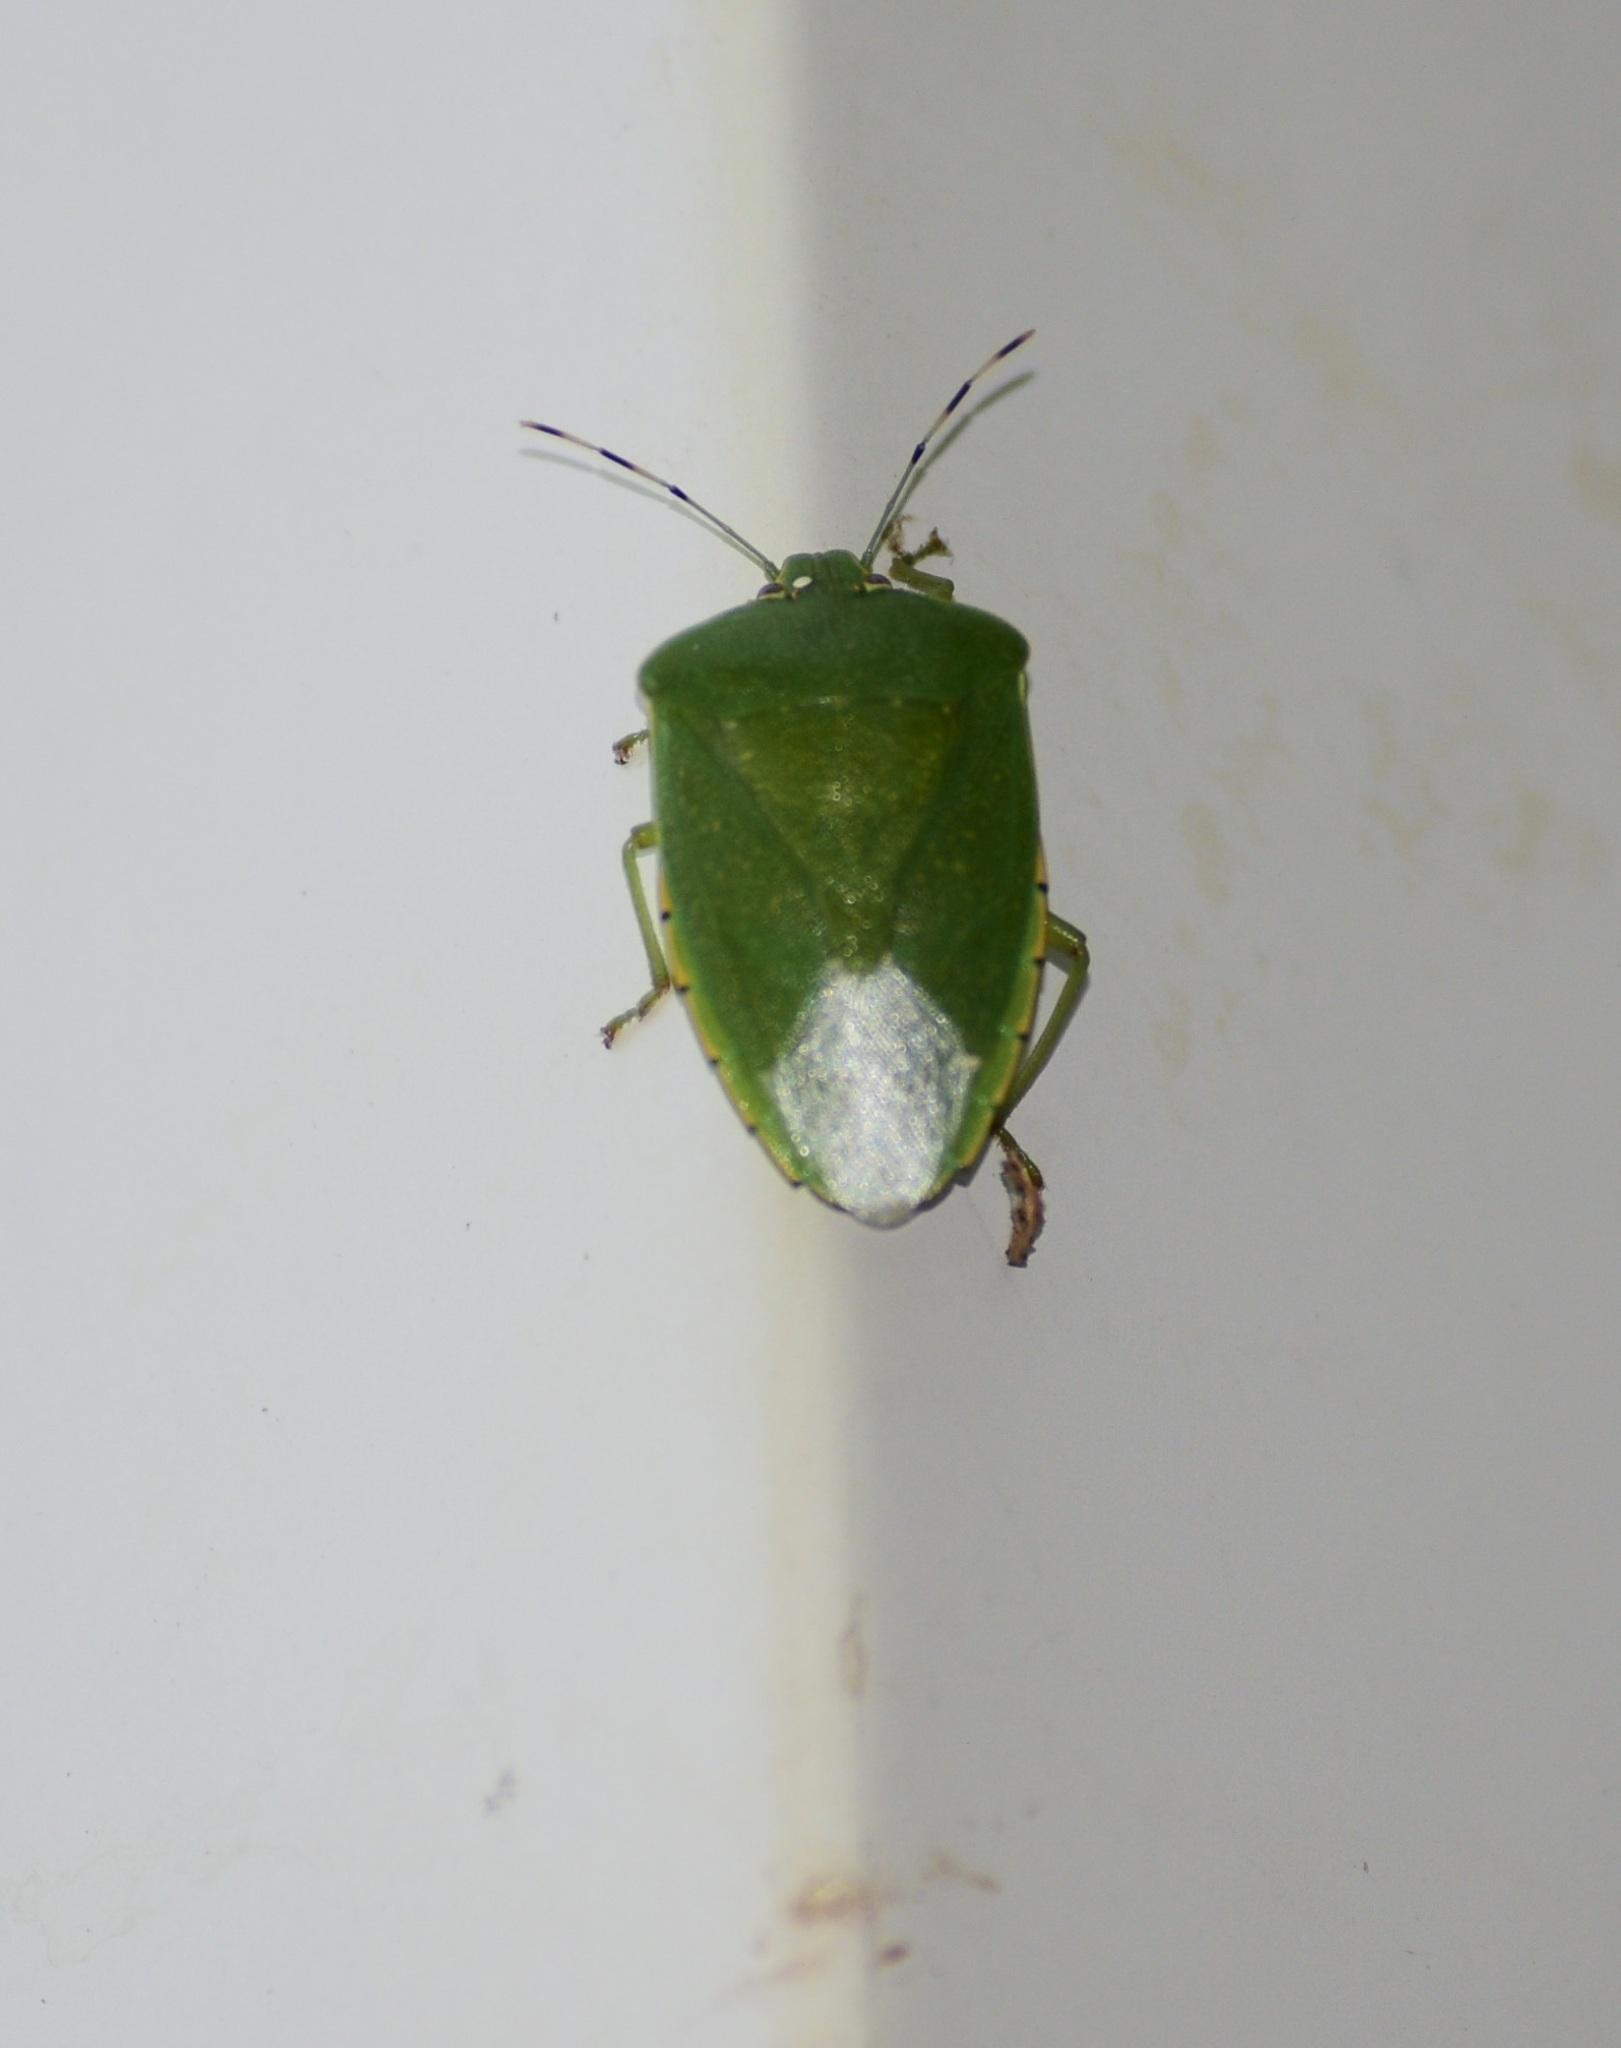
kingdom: Animalia
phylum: Arthropoda
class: Insecta
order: Hemiptera
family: Pentatomidae
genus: Chinavia
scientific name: Chinavia hilaris
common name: Green stink bug
